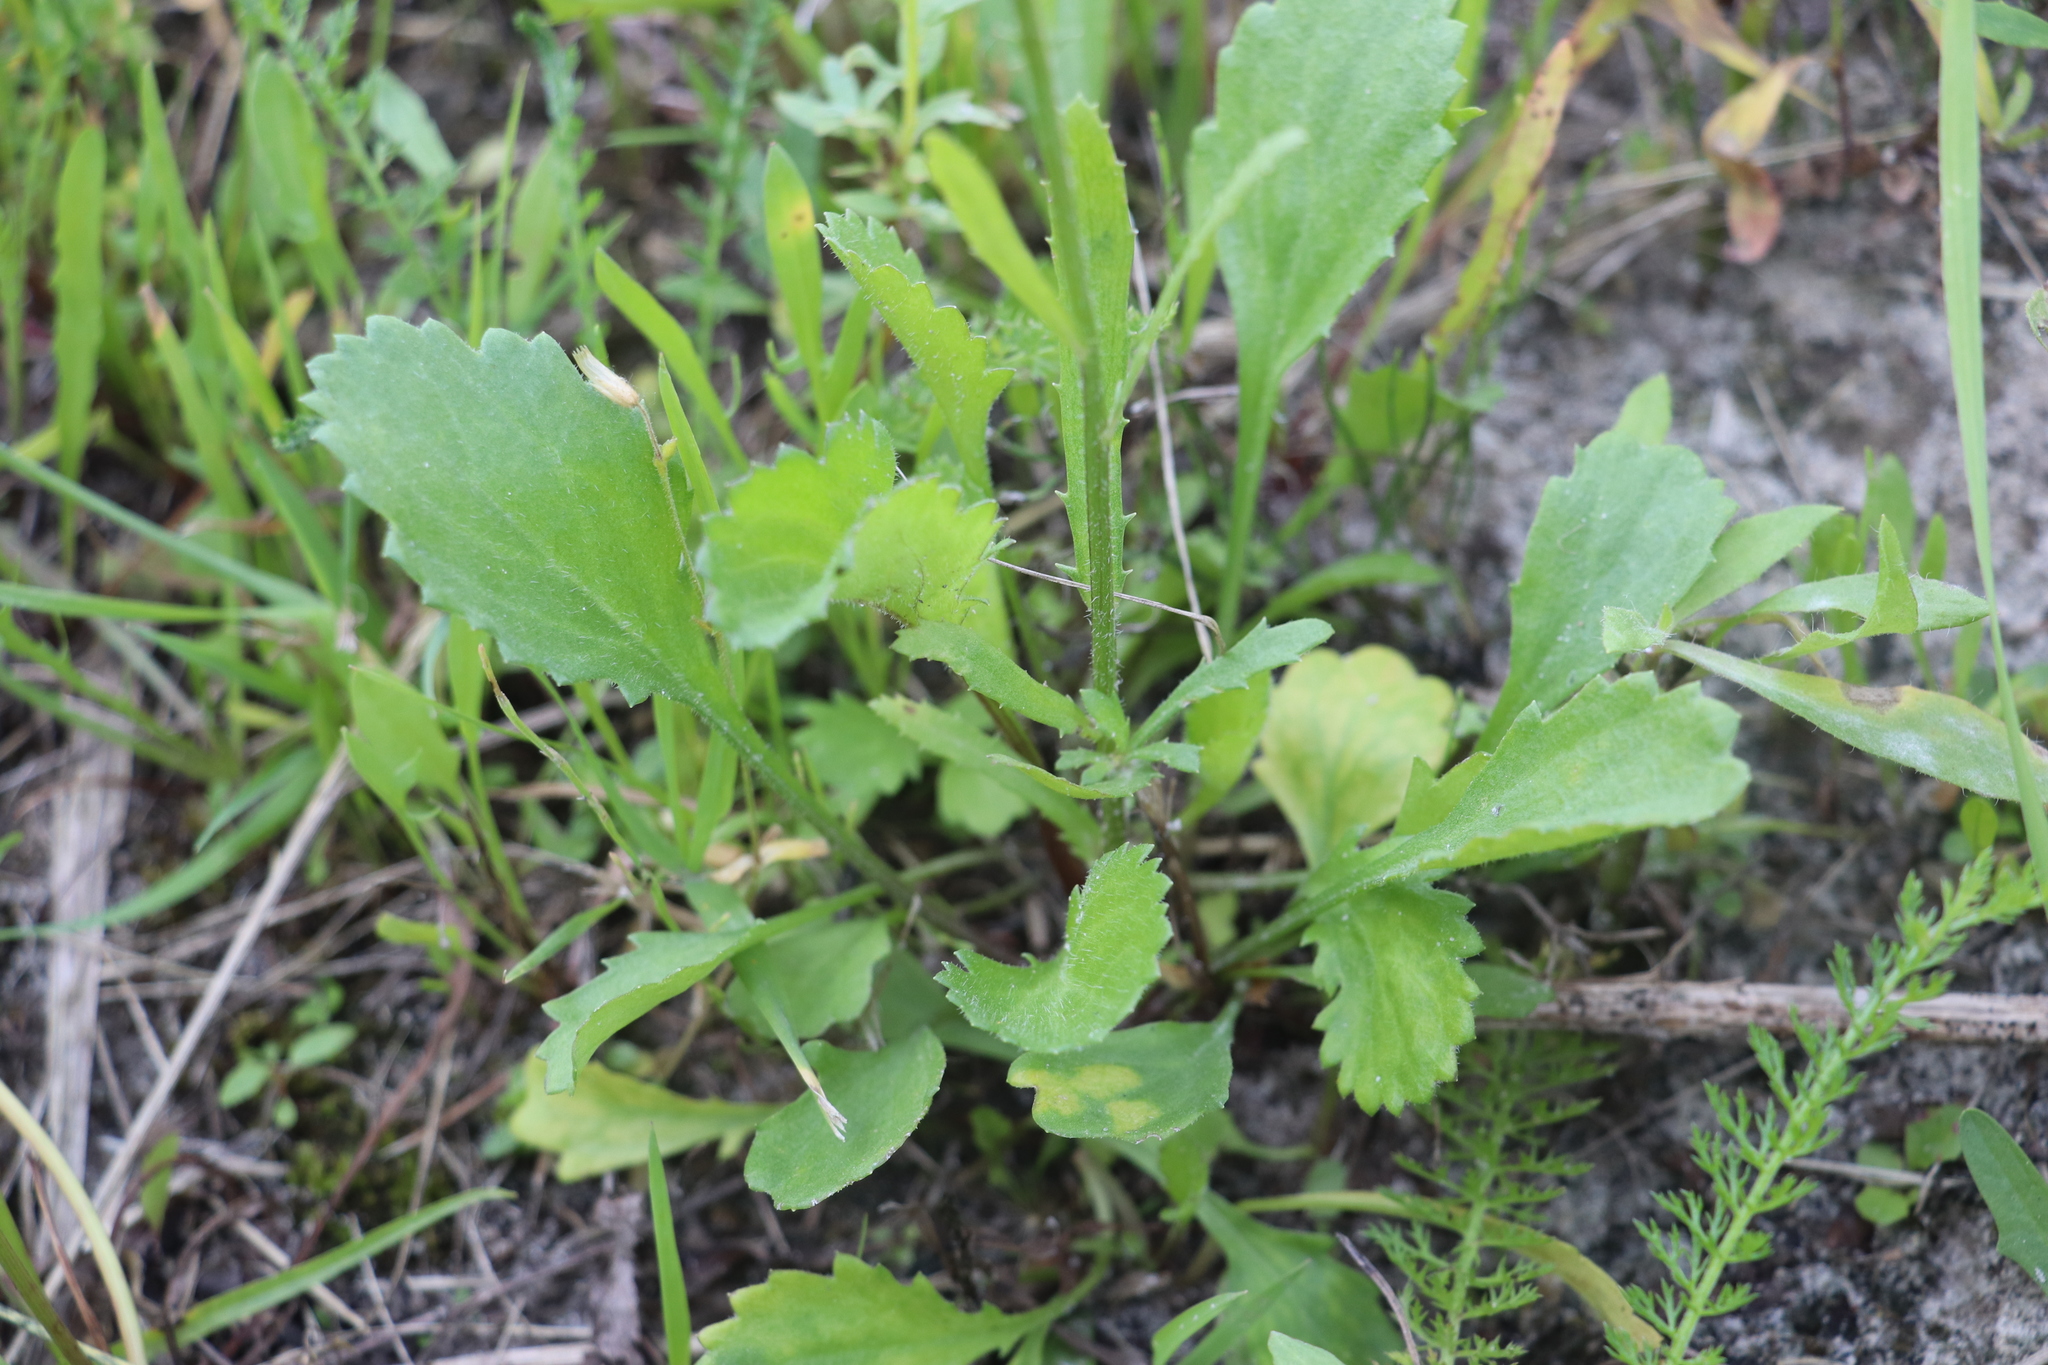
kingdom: Plantae
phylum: Tracheophyta
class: Magnoliopsida
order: Asterales
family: Asteraceae
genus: Leucanthemum
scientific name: Leucanthemum ircutianum
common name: Daisy
